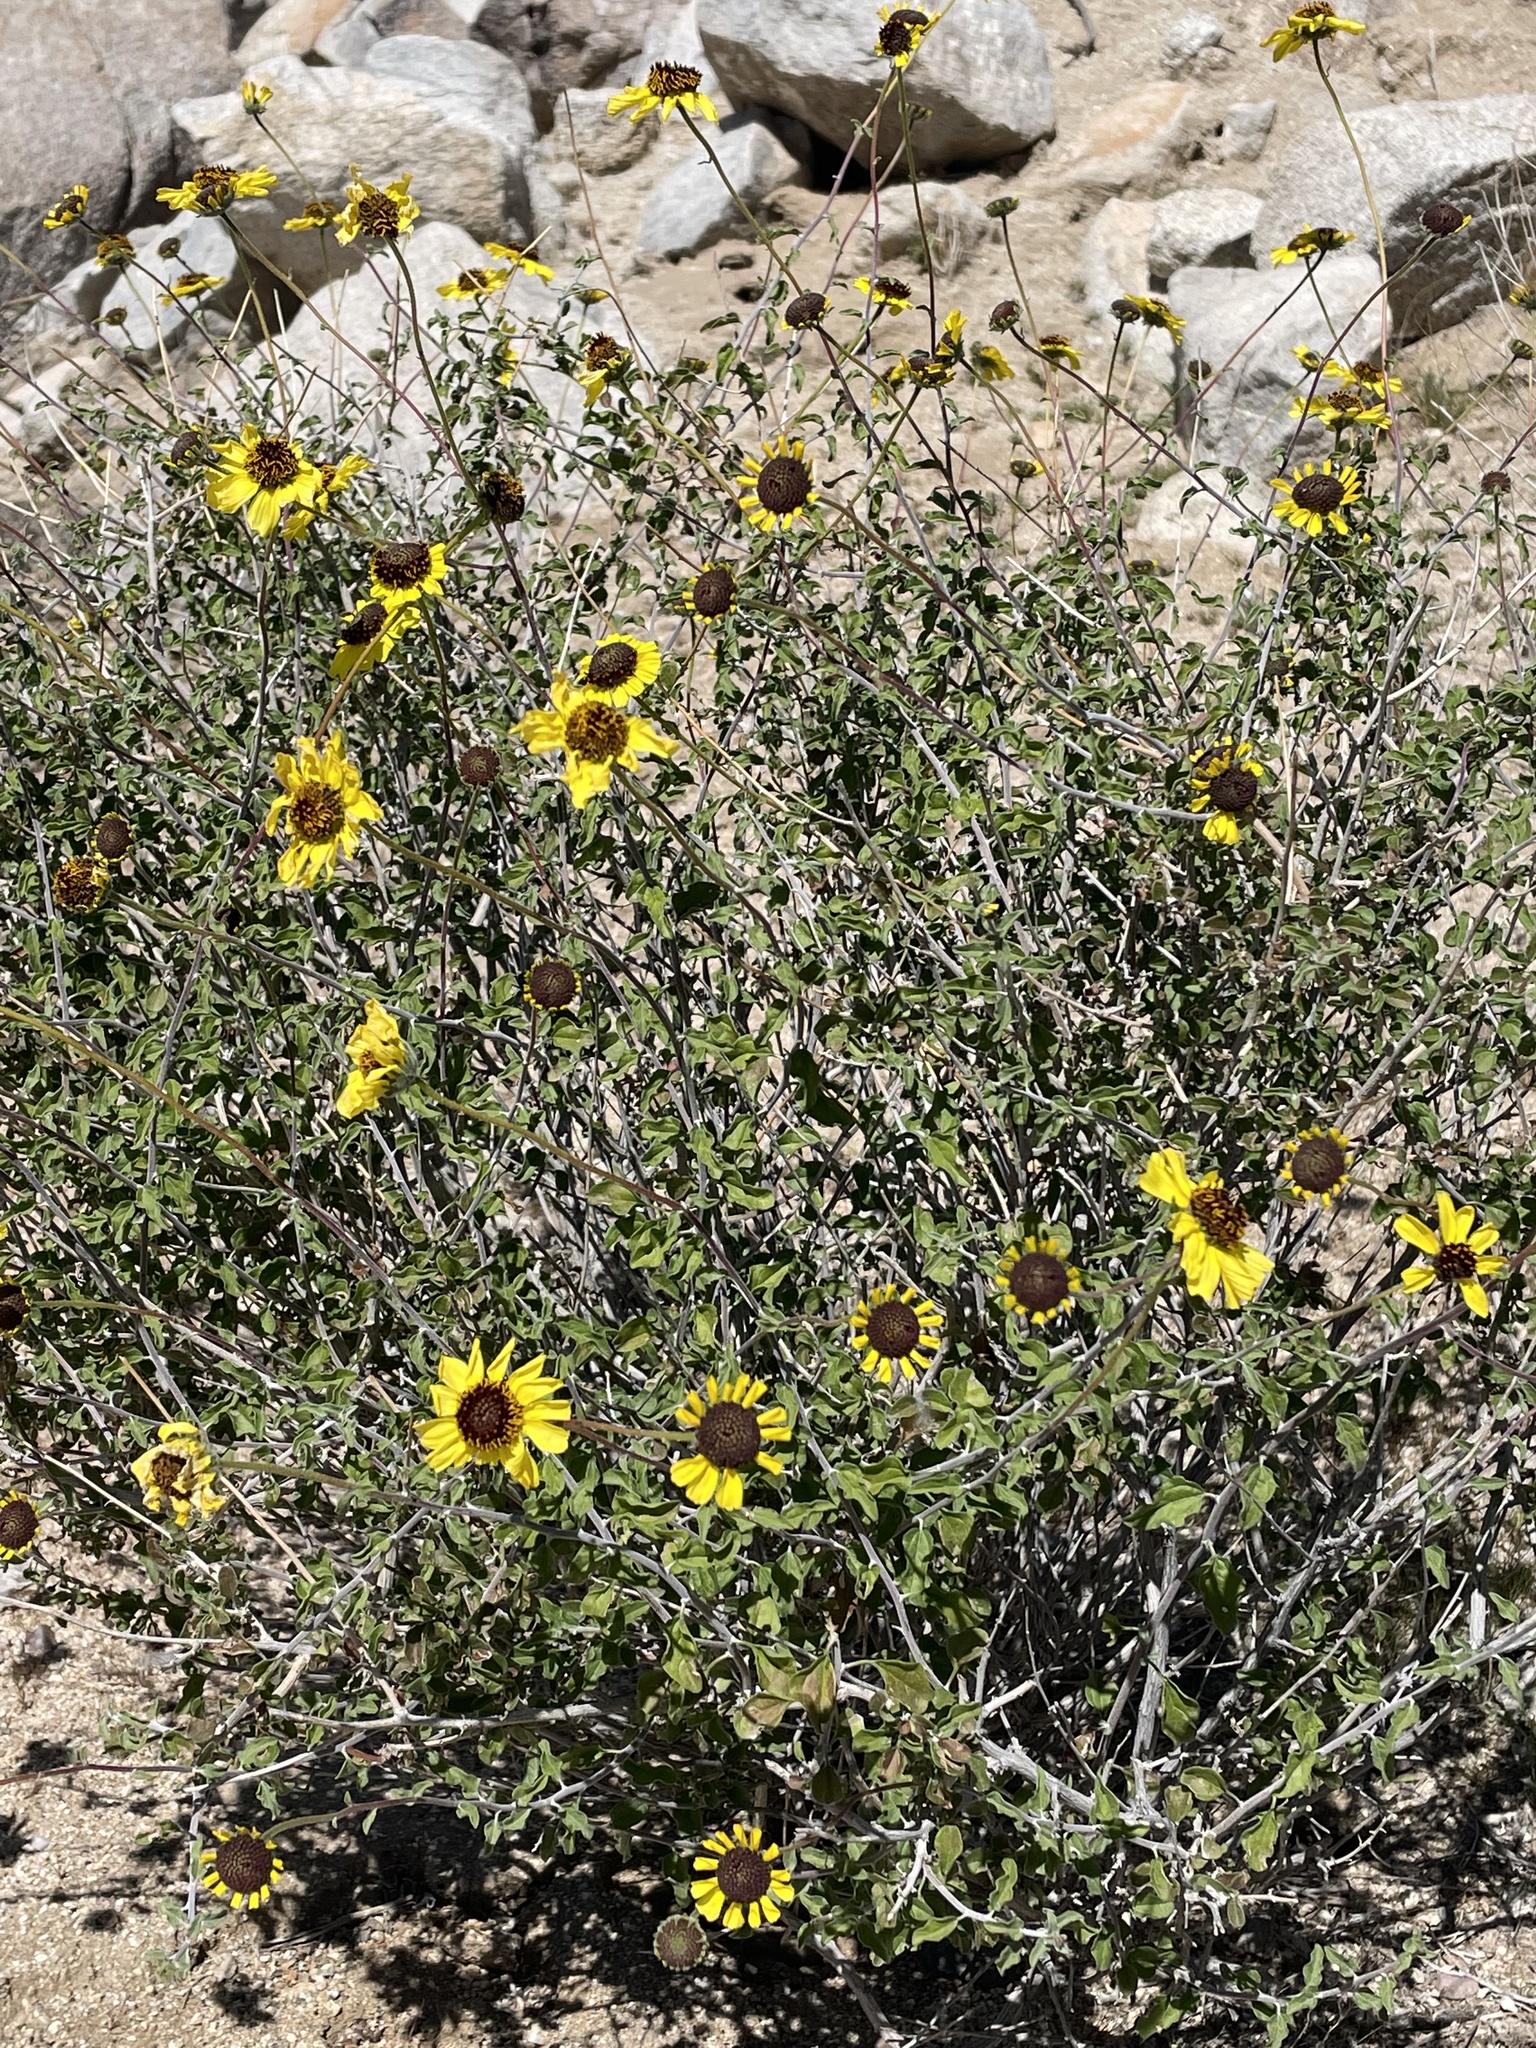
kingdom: Plantae
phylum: Tracheophyta
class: Magnoliopsida
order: Asterales
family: Asteraceae
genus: Encelia
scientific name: Encelia asperifolia
